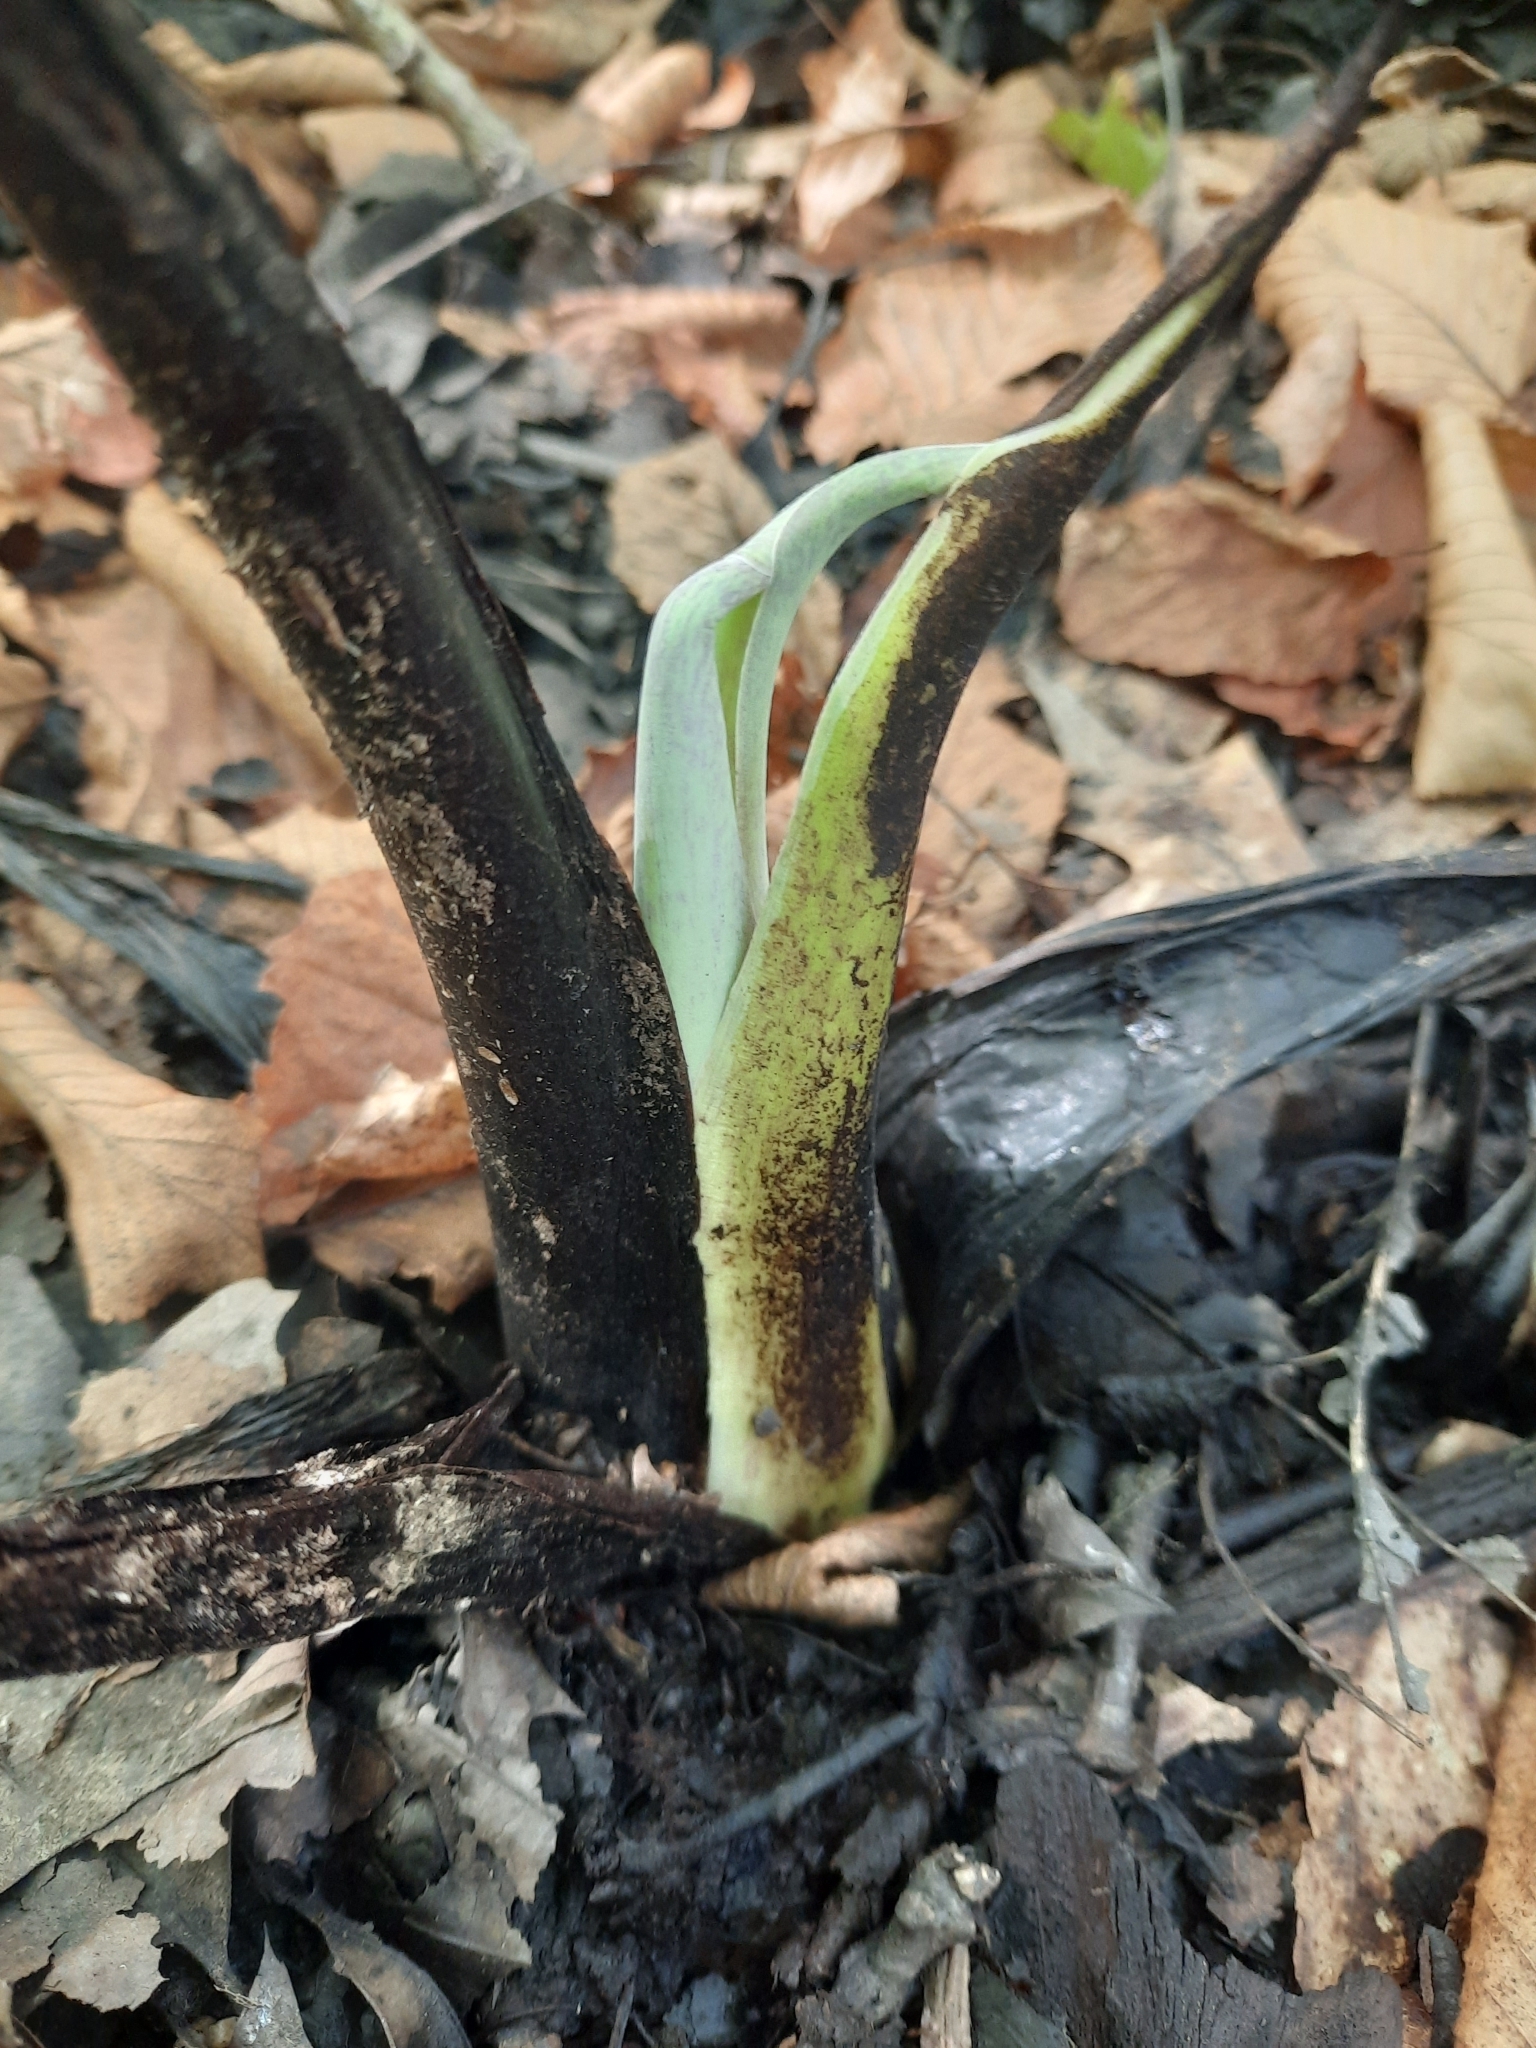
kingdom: Plantae
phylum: Tracheophyta
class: Liliopsida
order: Alismatales
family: Araceae
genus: Symplocarpus
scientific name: Symplocarpus foetidus
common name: Eastern skunk cabbage
